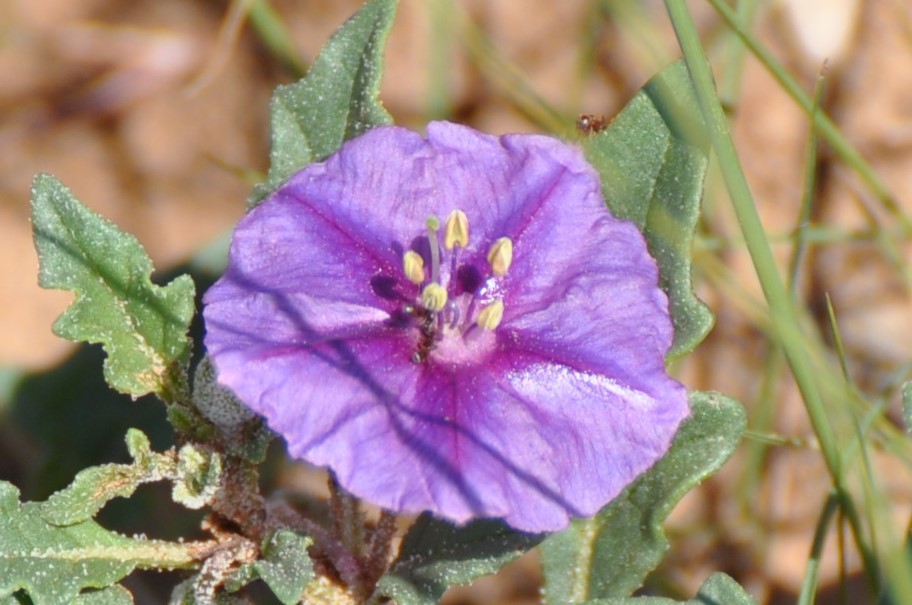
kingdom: Plantae
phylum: Tracheophyta
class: Magnoliopsida
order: Solanales
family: Solanaceae
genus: Quincula
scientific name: Quincula lobata
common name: Purple-ground-cherry
